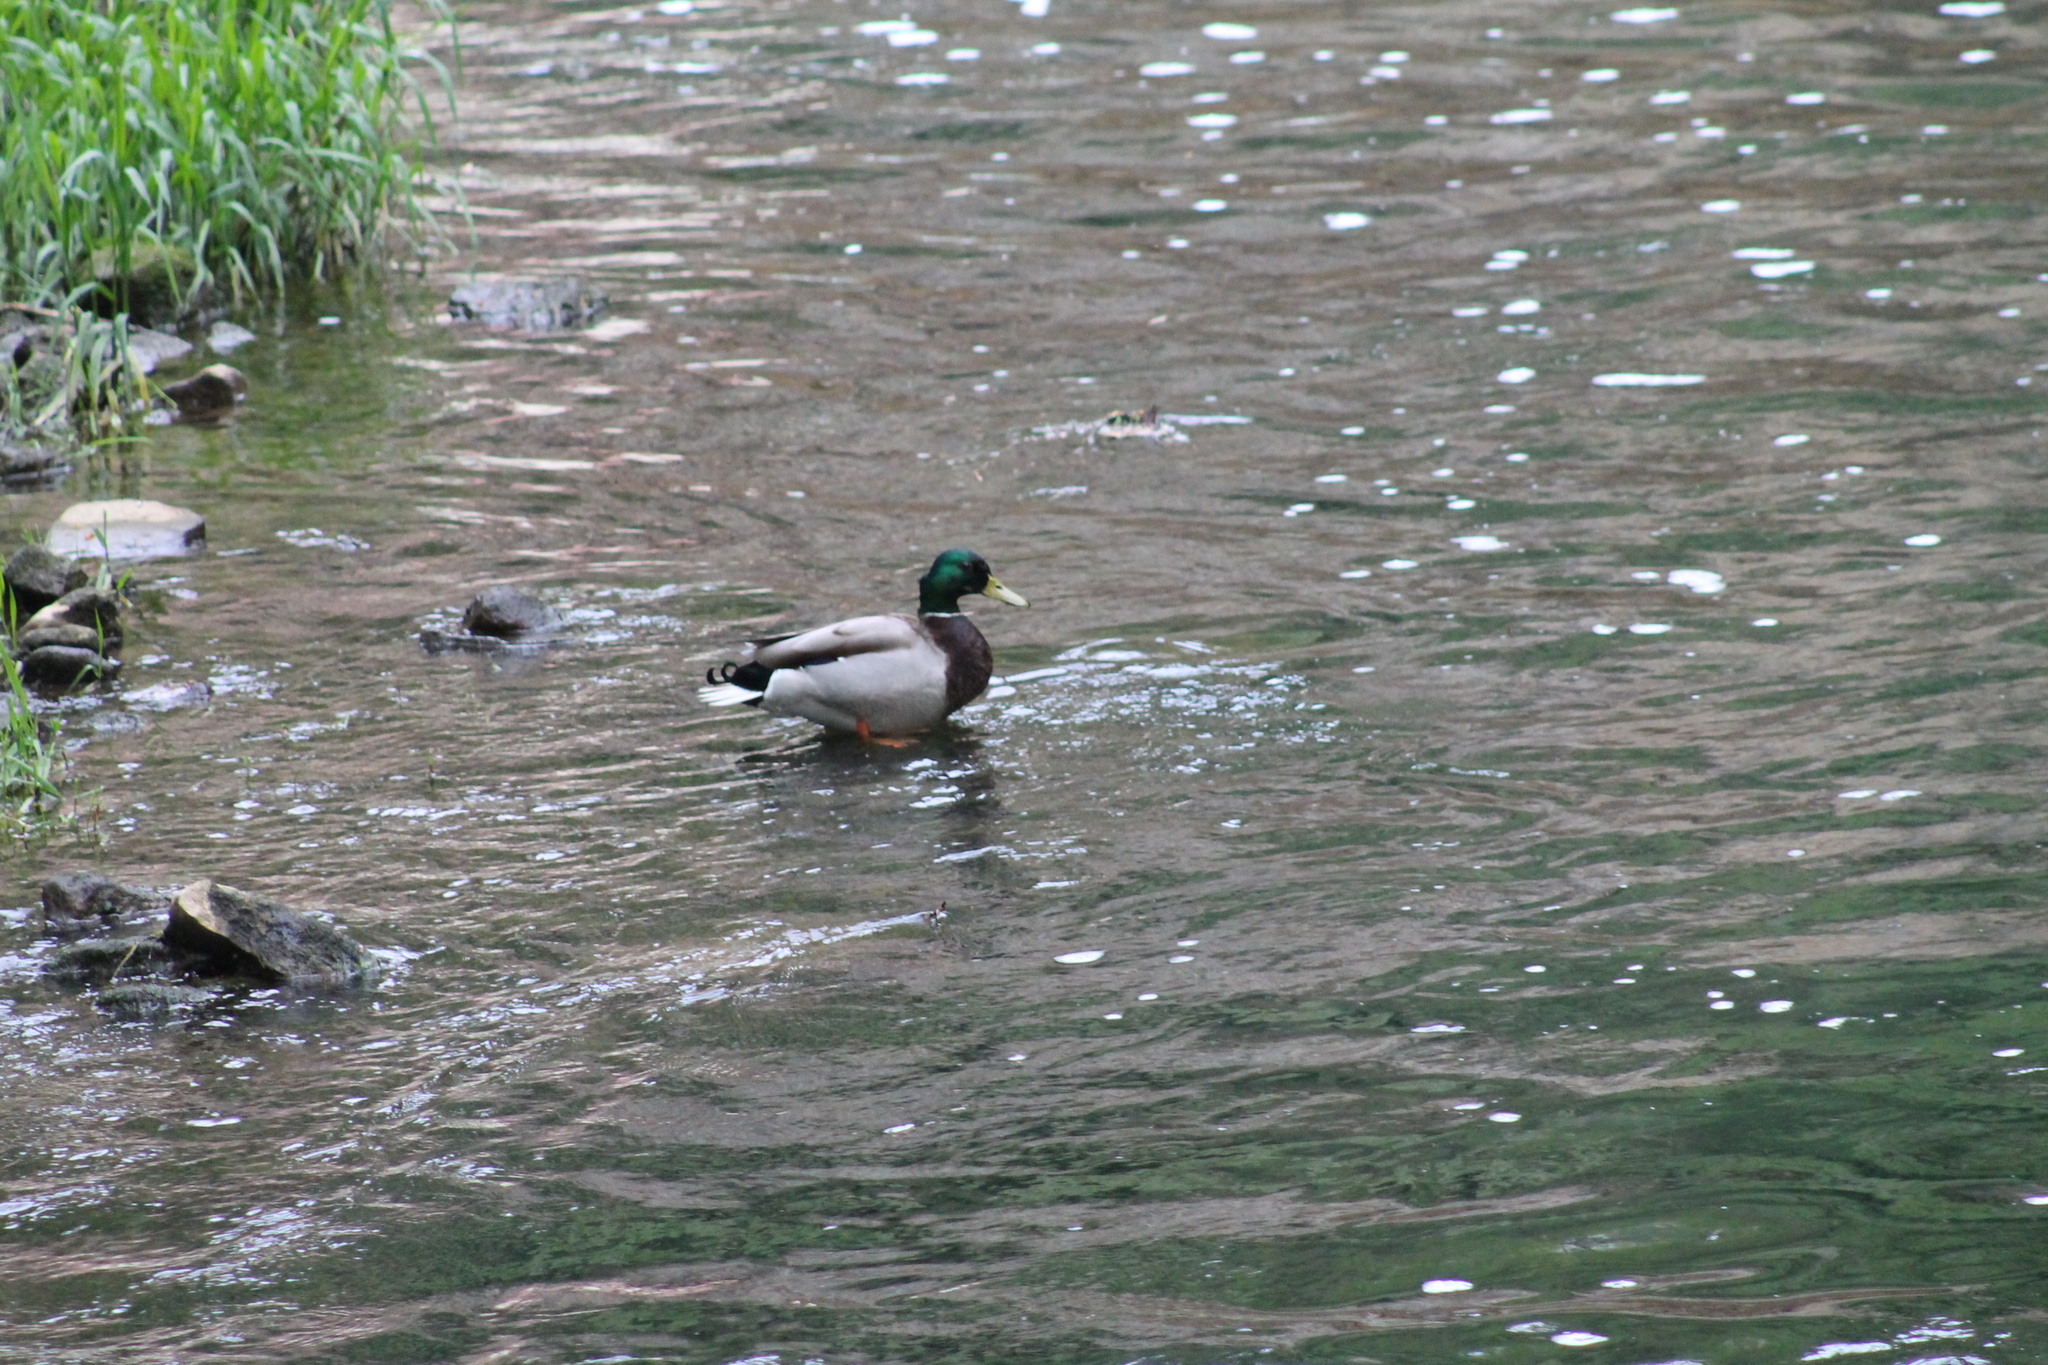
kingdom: Animalia
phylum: Chordata
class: Aves
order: Anseriformes
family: Anatidae
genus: Anas
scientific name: Anas platyrhynchos
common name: Mallard
